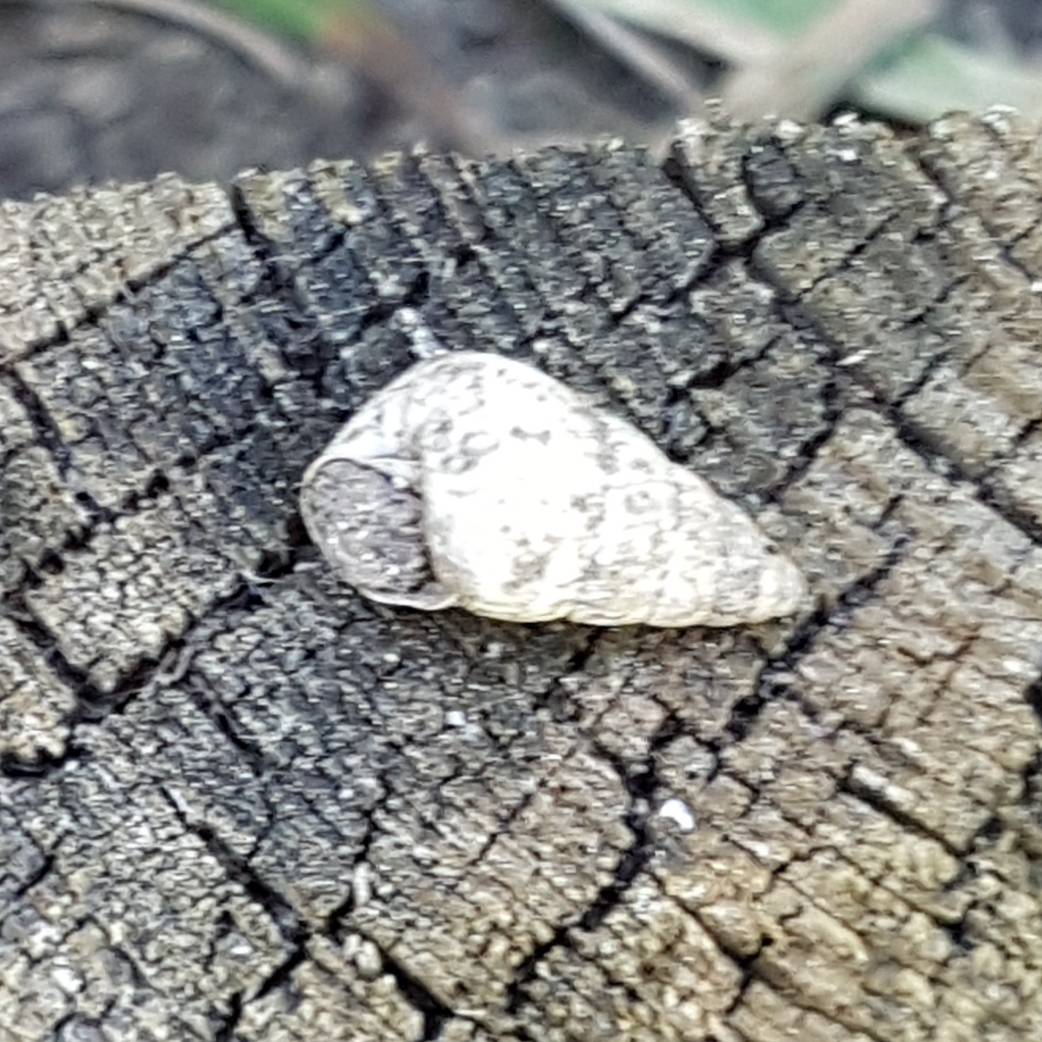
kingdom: Animalia
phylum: Mollusca
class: Gastropoda
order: Stylommatophora
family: Geomitridae
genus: Cochlicella
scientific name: Cochlicella barbara
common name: Potbellied helicellid
